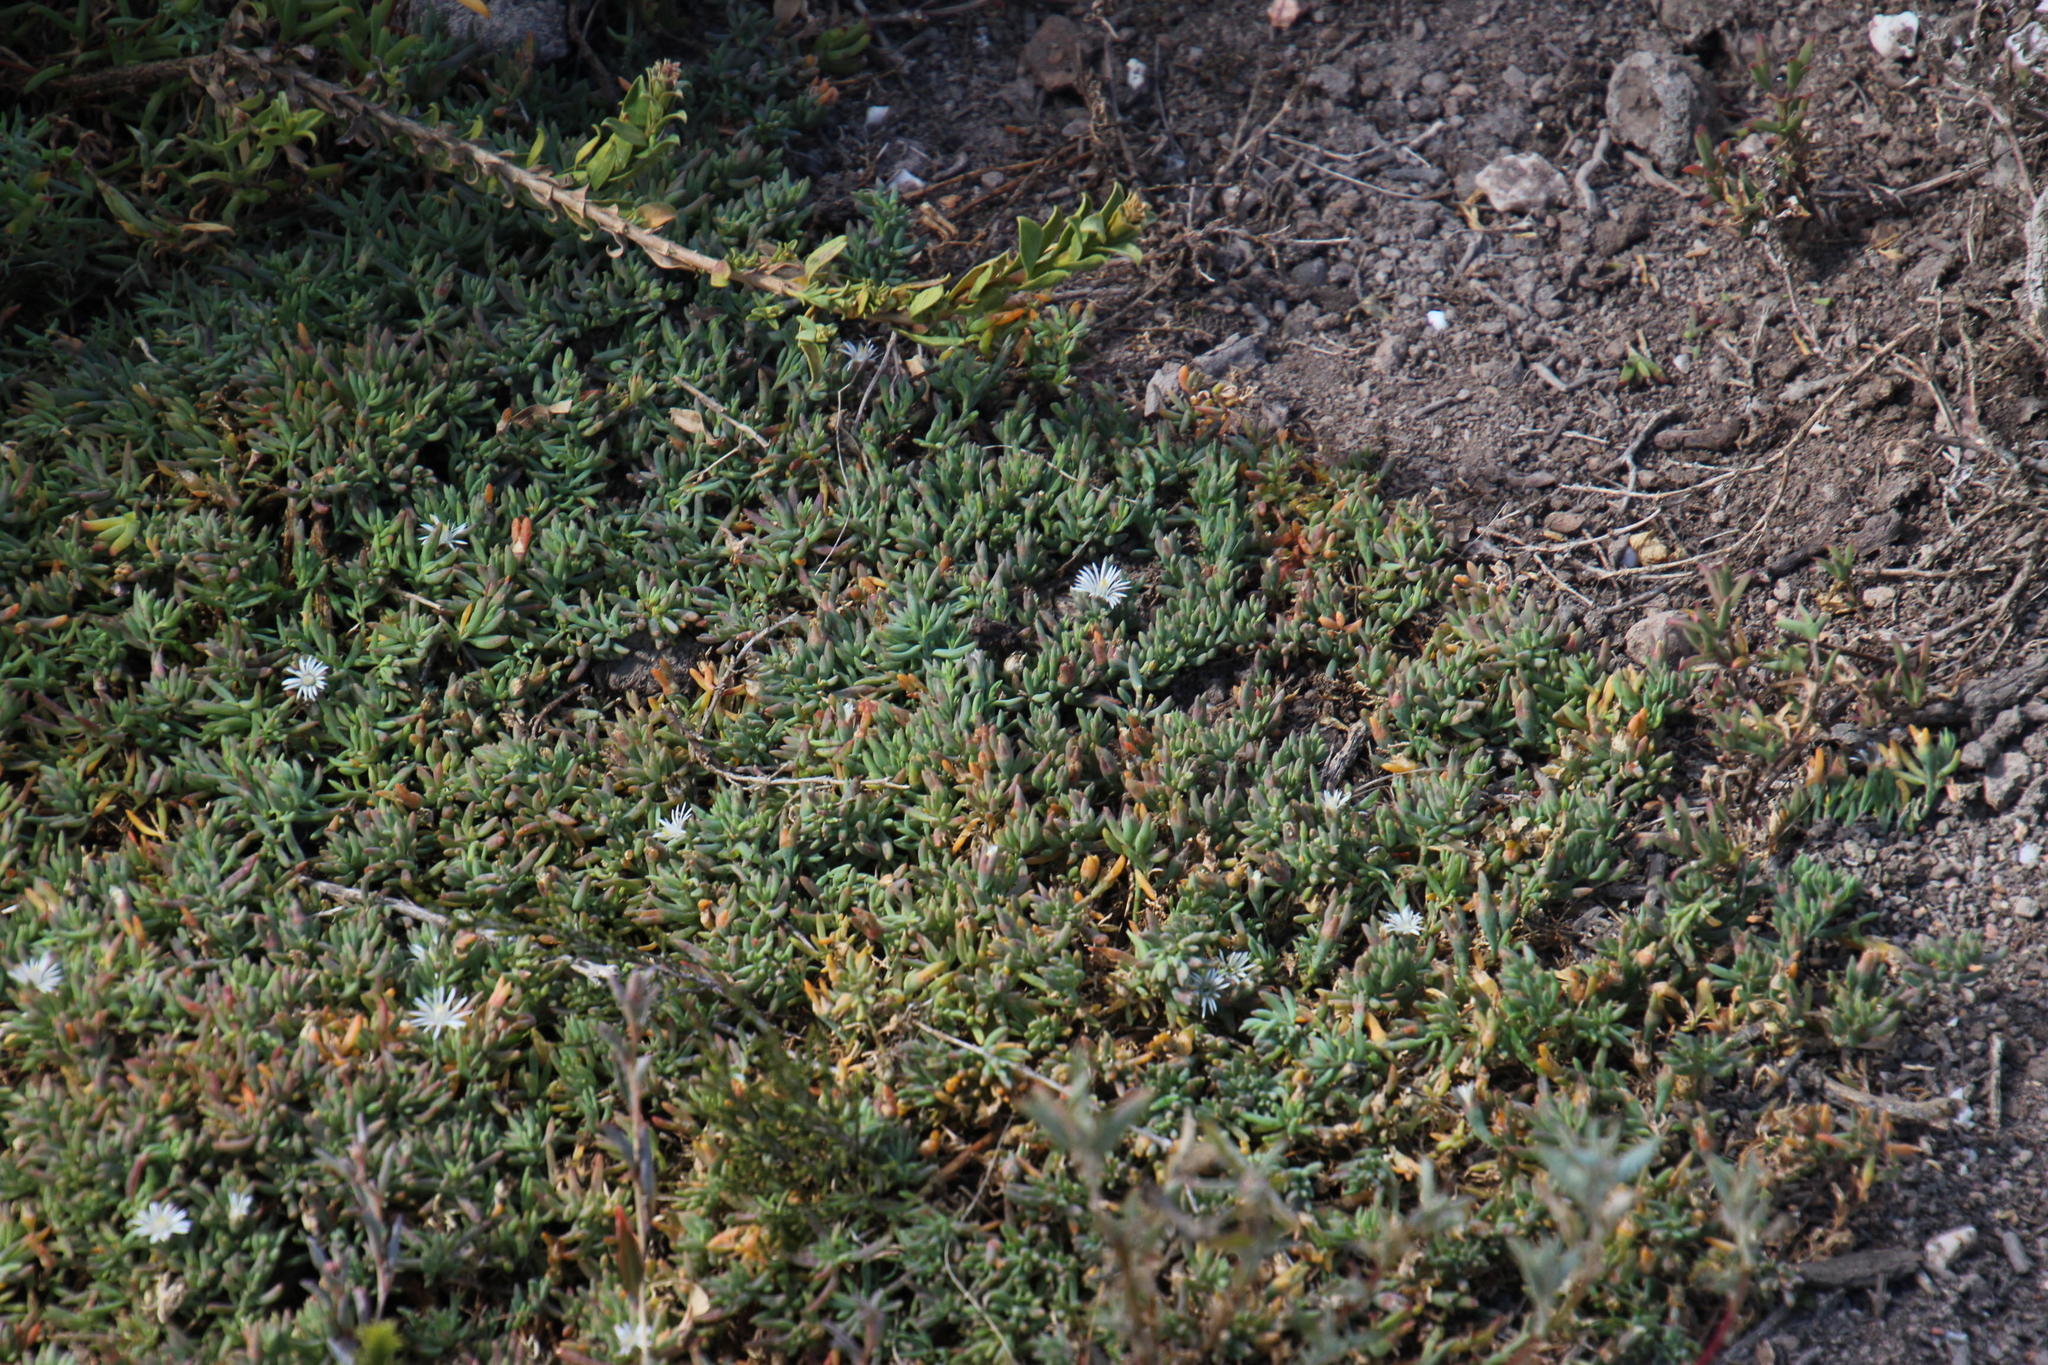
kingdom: Plantae
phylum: Tracheophyta
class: Magnoliopsida
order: Caryophyllales
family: Aizoaceae
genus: Mesembryanthemum
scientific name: Mesembryanthemum parviflorum
